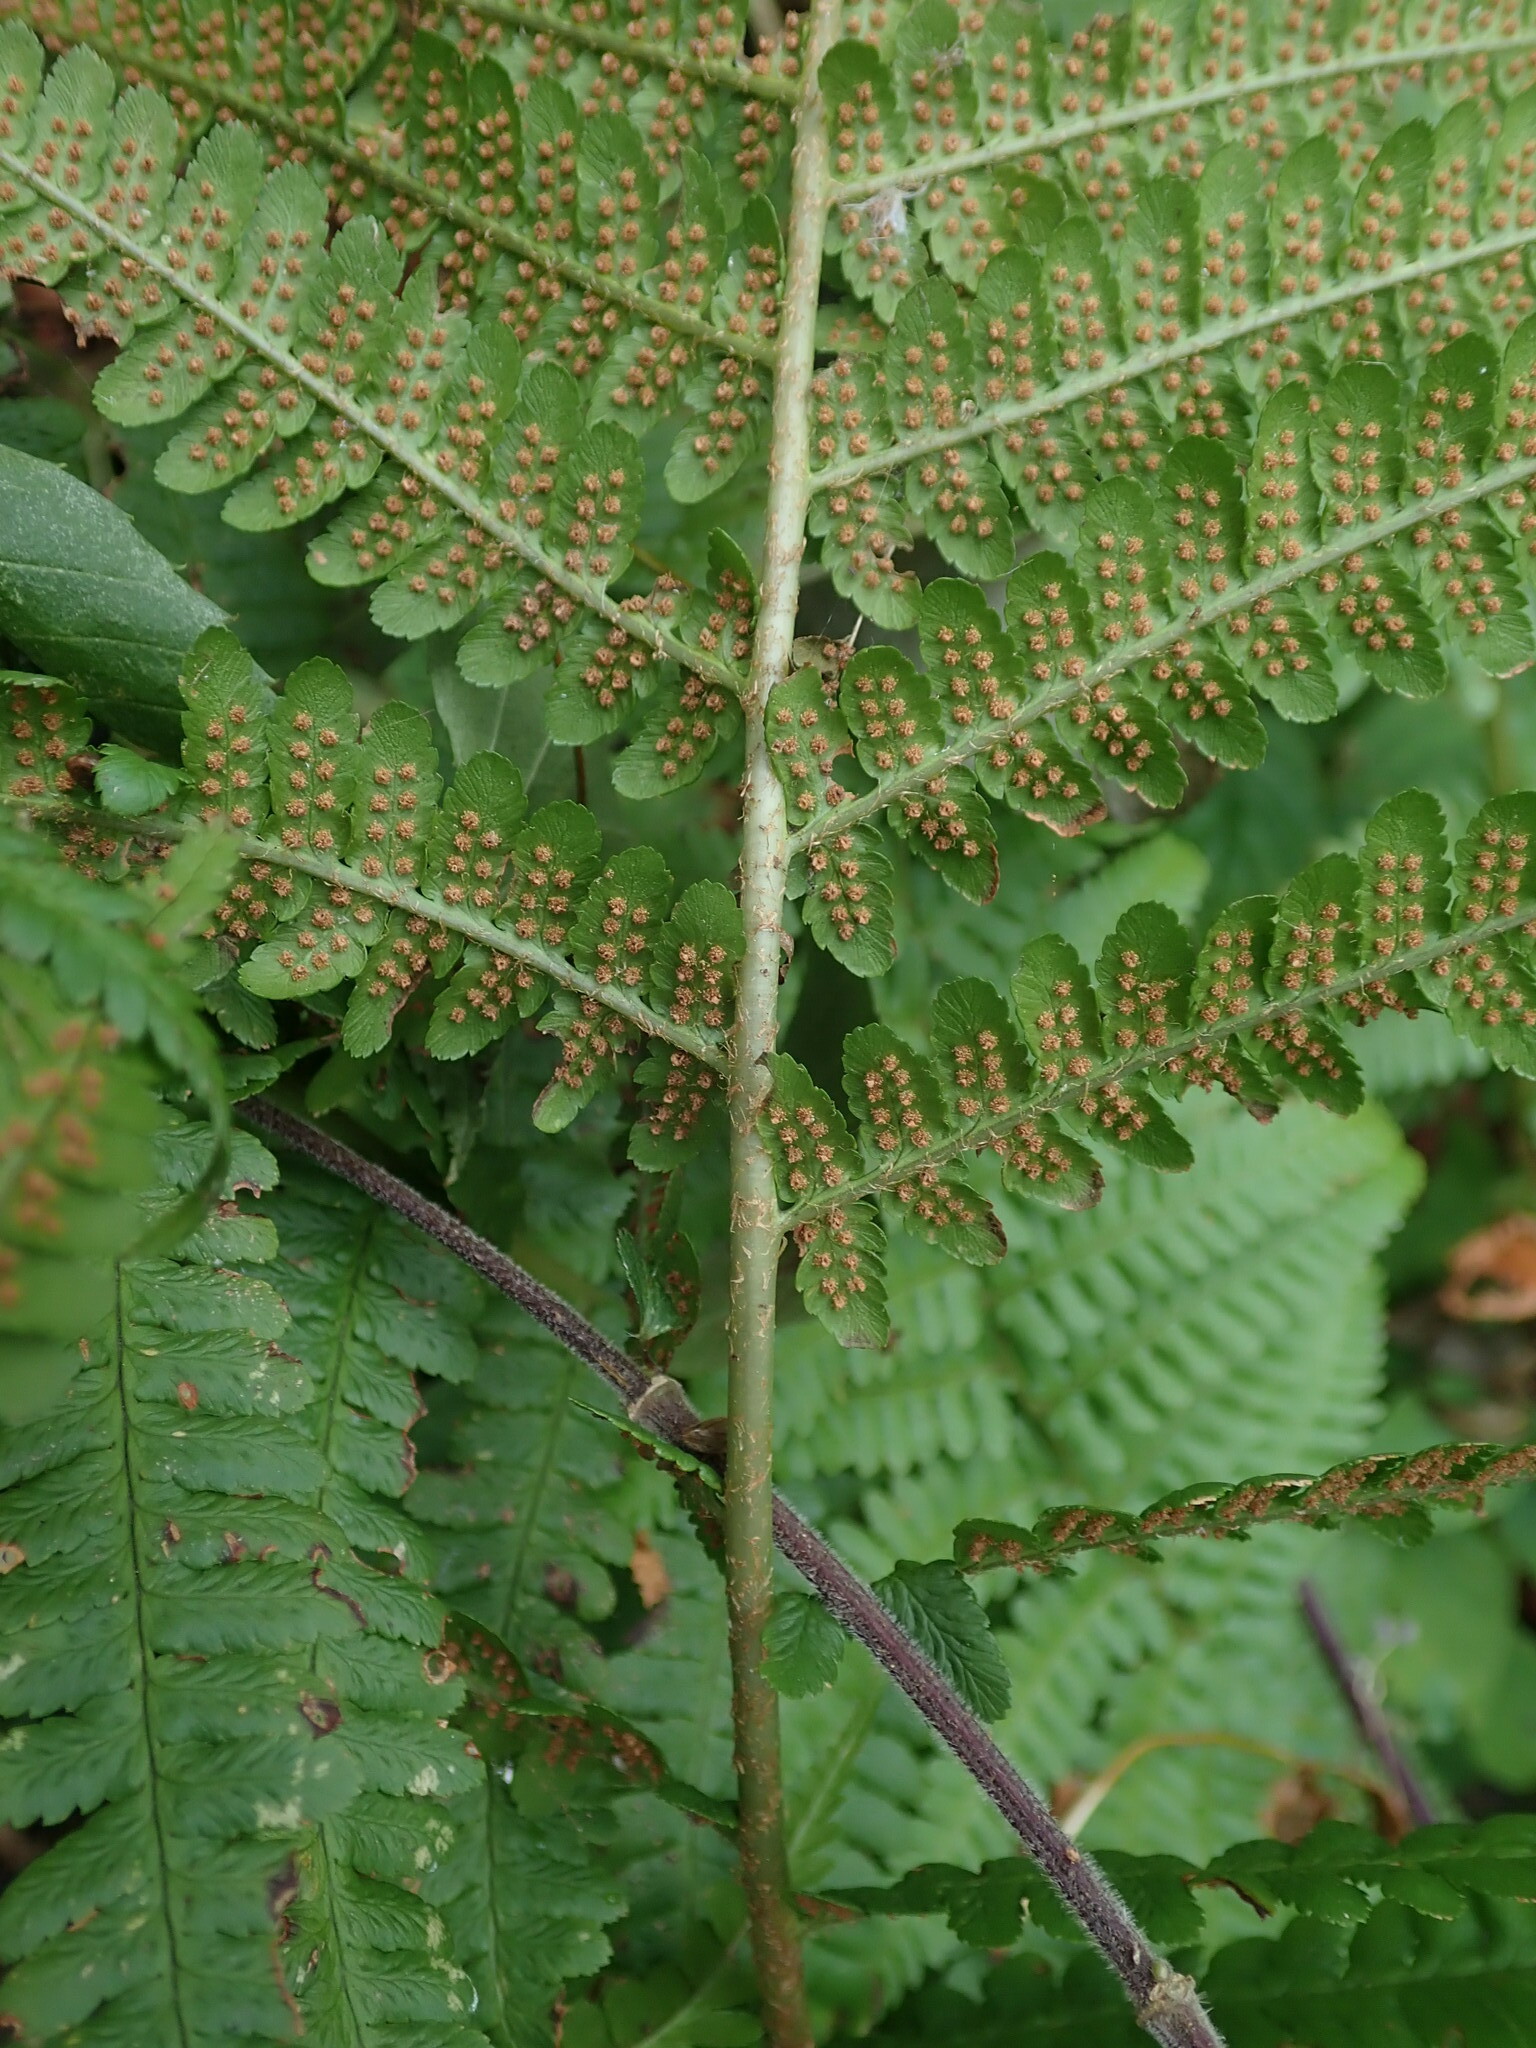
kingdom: Plantae
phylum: Tracheophyta
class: Polypodiopsida
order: Polypodiales
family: Dryopteridaceae
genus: Dryopteris
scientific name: Dryopteris filix-mas
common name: Male fern
